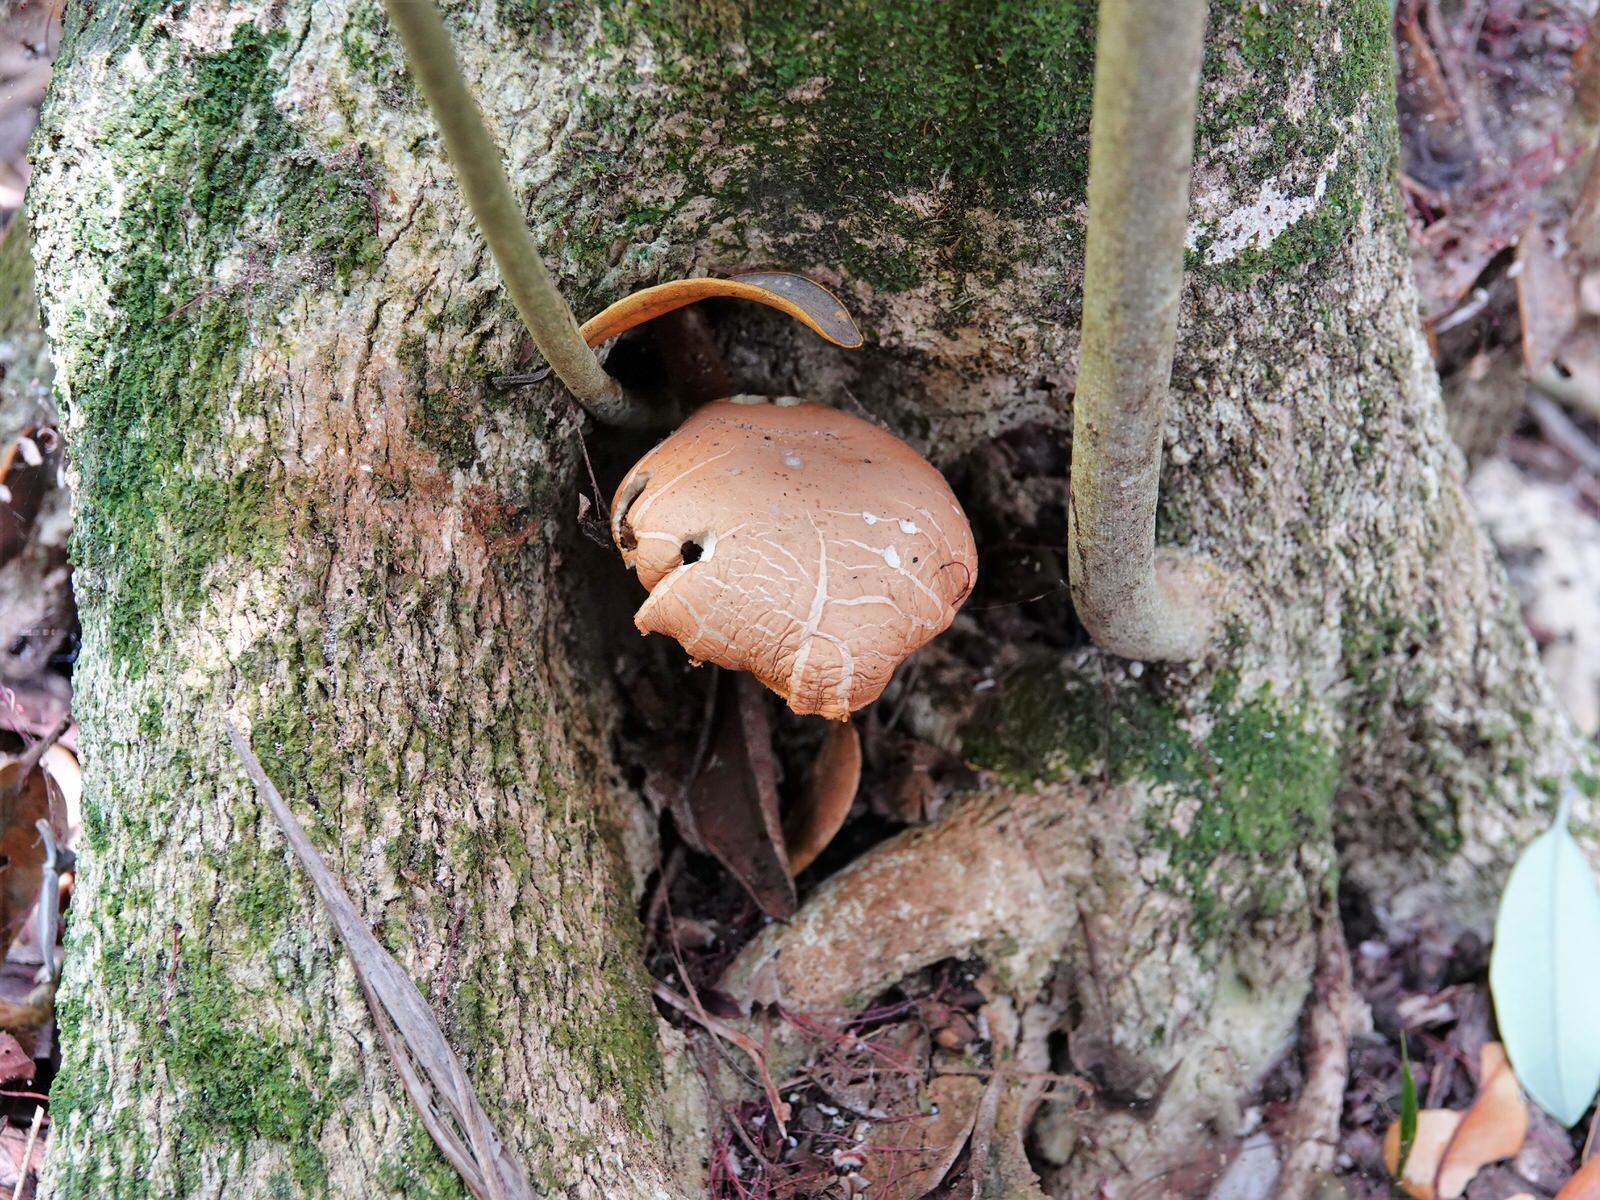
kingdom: Fungi
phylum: Basidiomycota
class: Agaricomycetes
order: Agaricales
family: Tubariaceae
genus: Cyclocybe
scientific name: Cyclocybe parasitica
